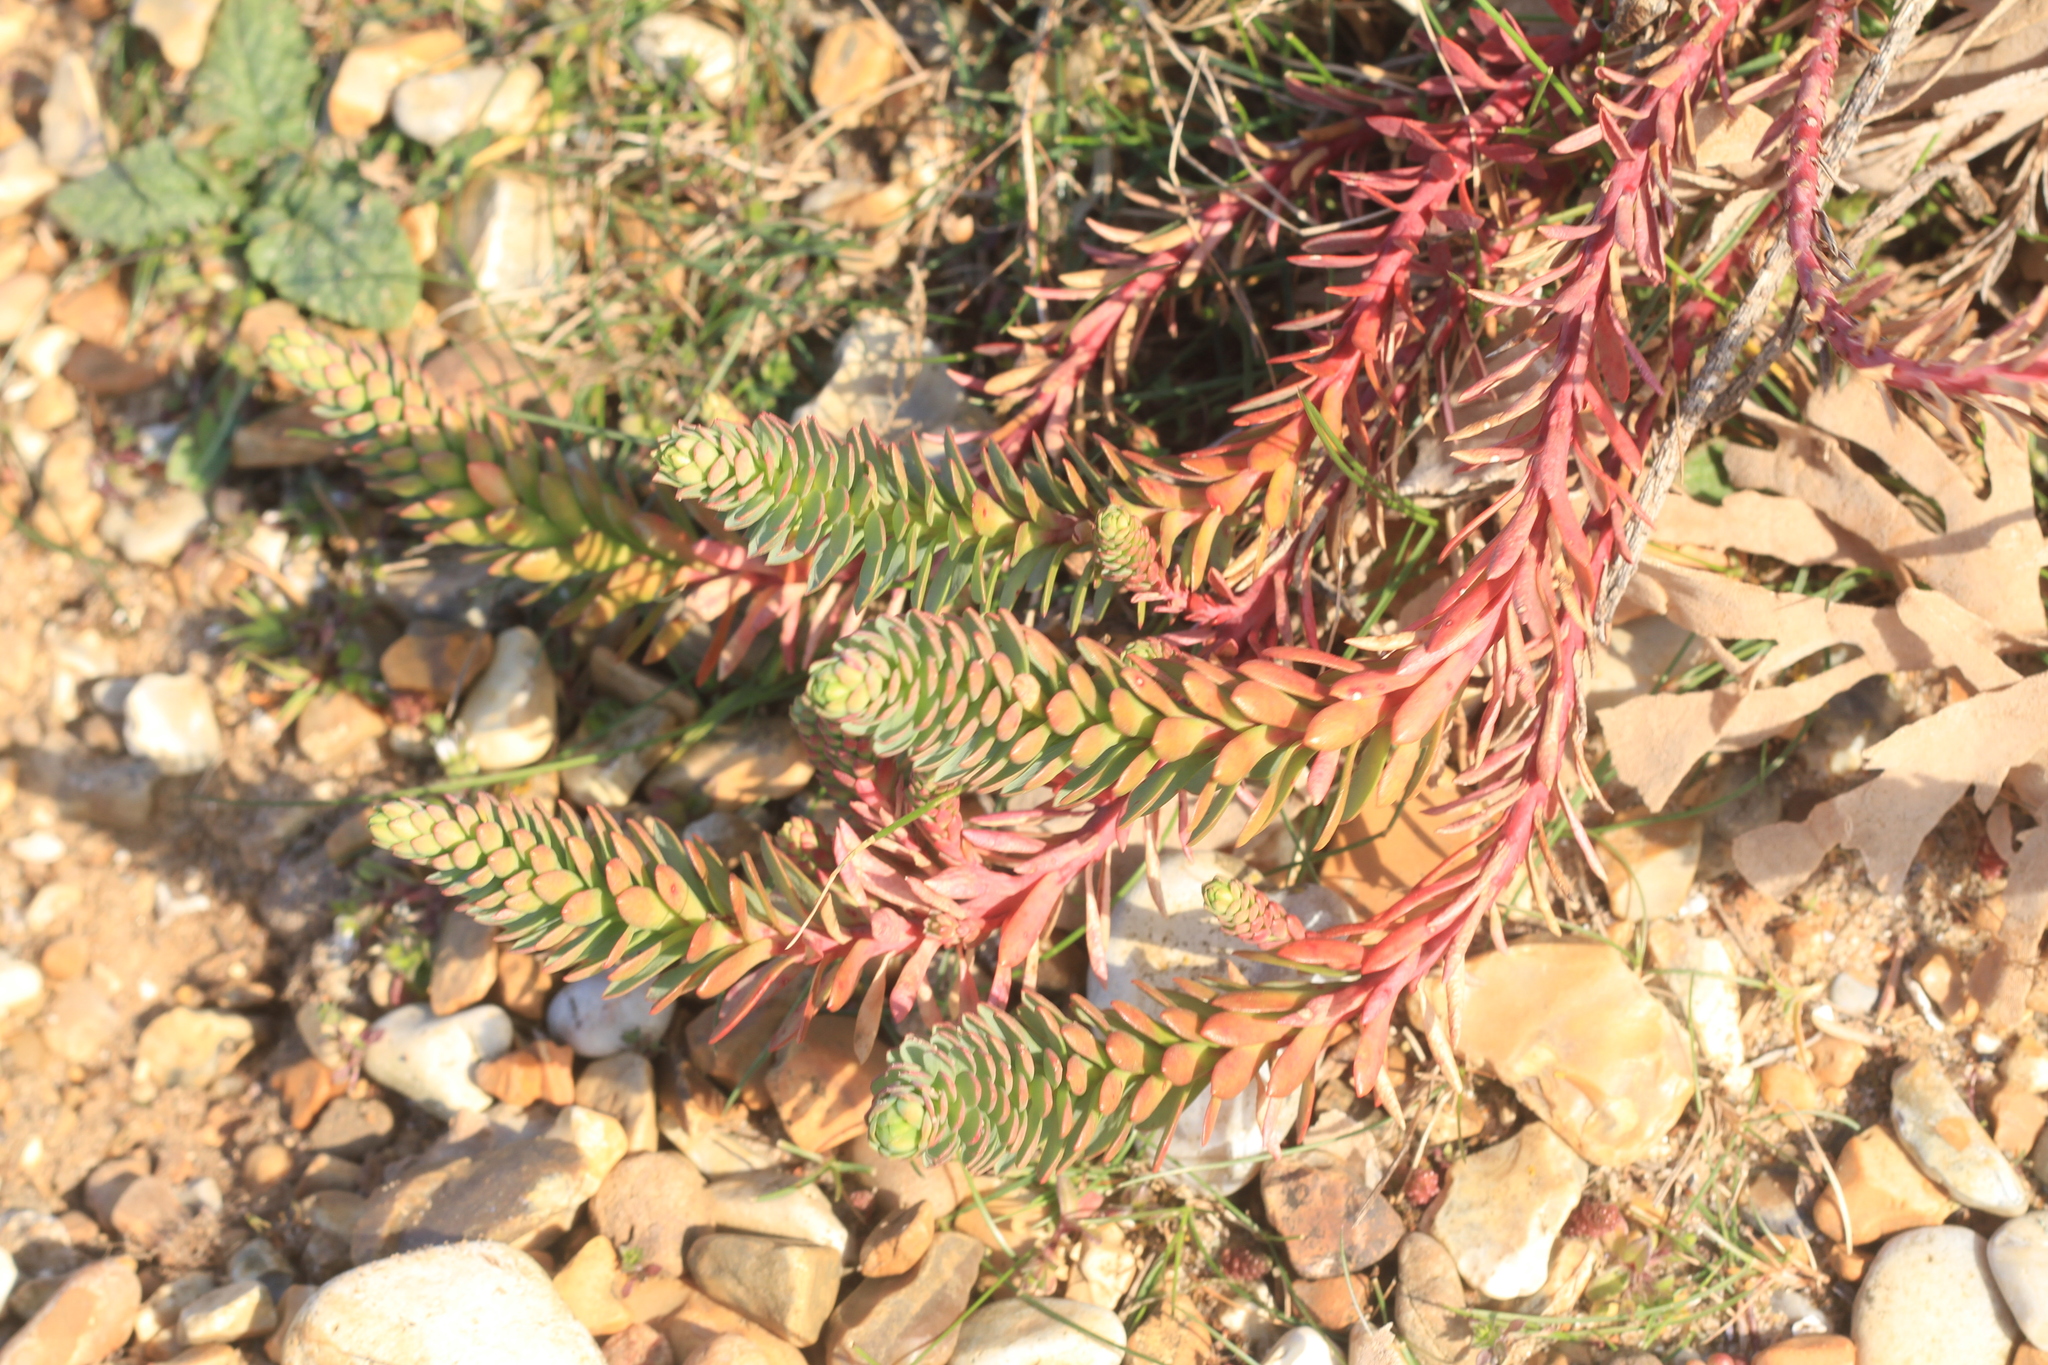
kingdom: Plantae
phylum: Tracheophyta
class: Magnoliopsida
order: Malpighiales
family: Euphorbiaceae
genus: Euphorbia
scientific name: Euphorbia paralias
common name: Sea spurge
